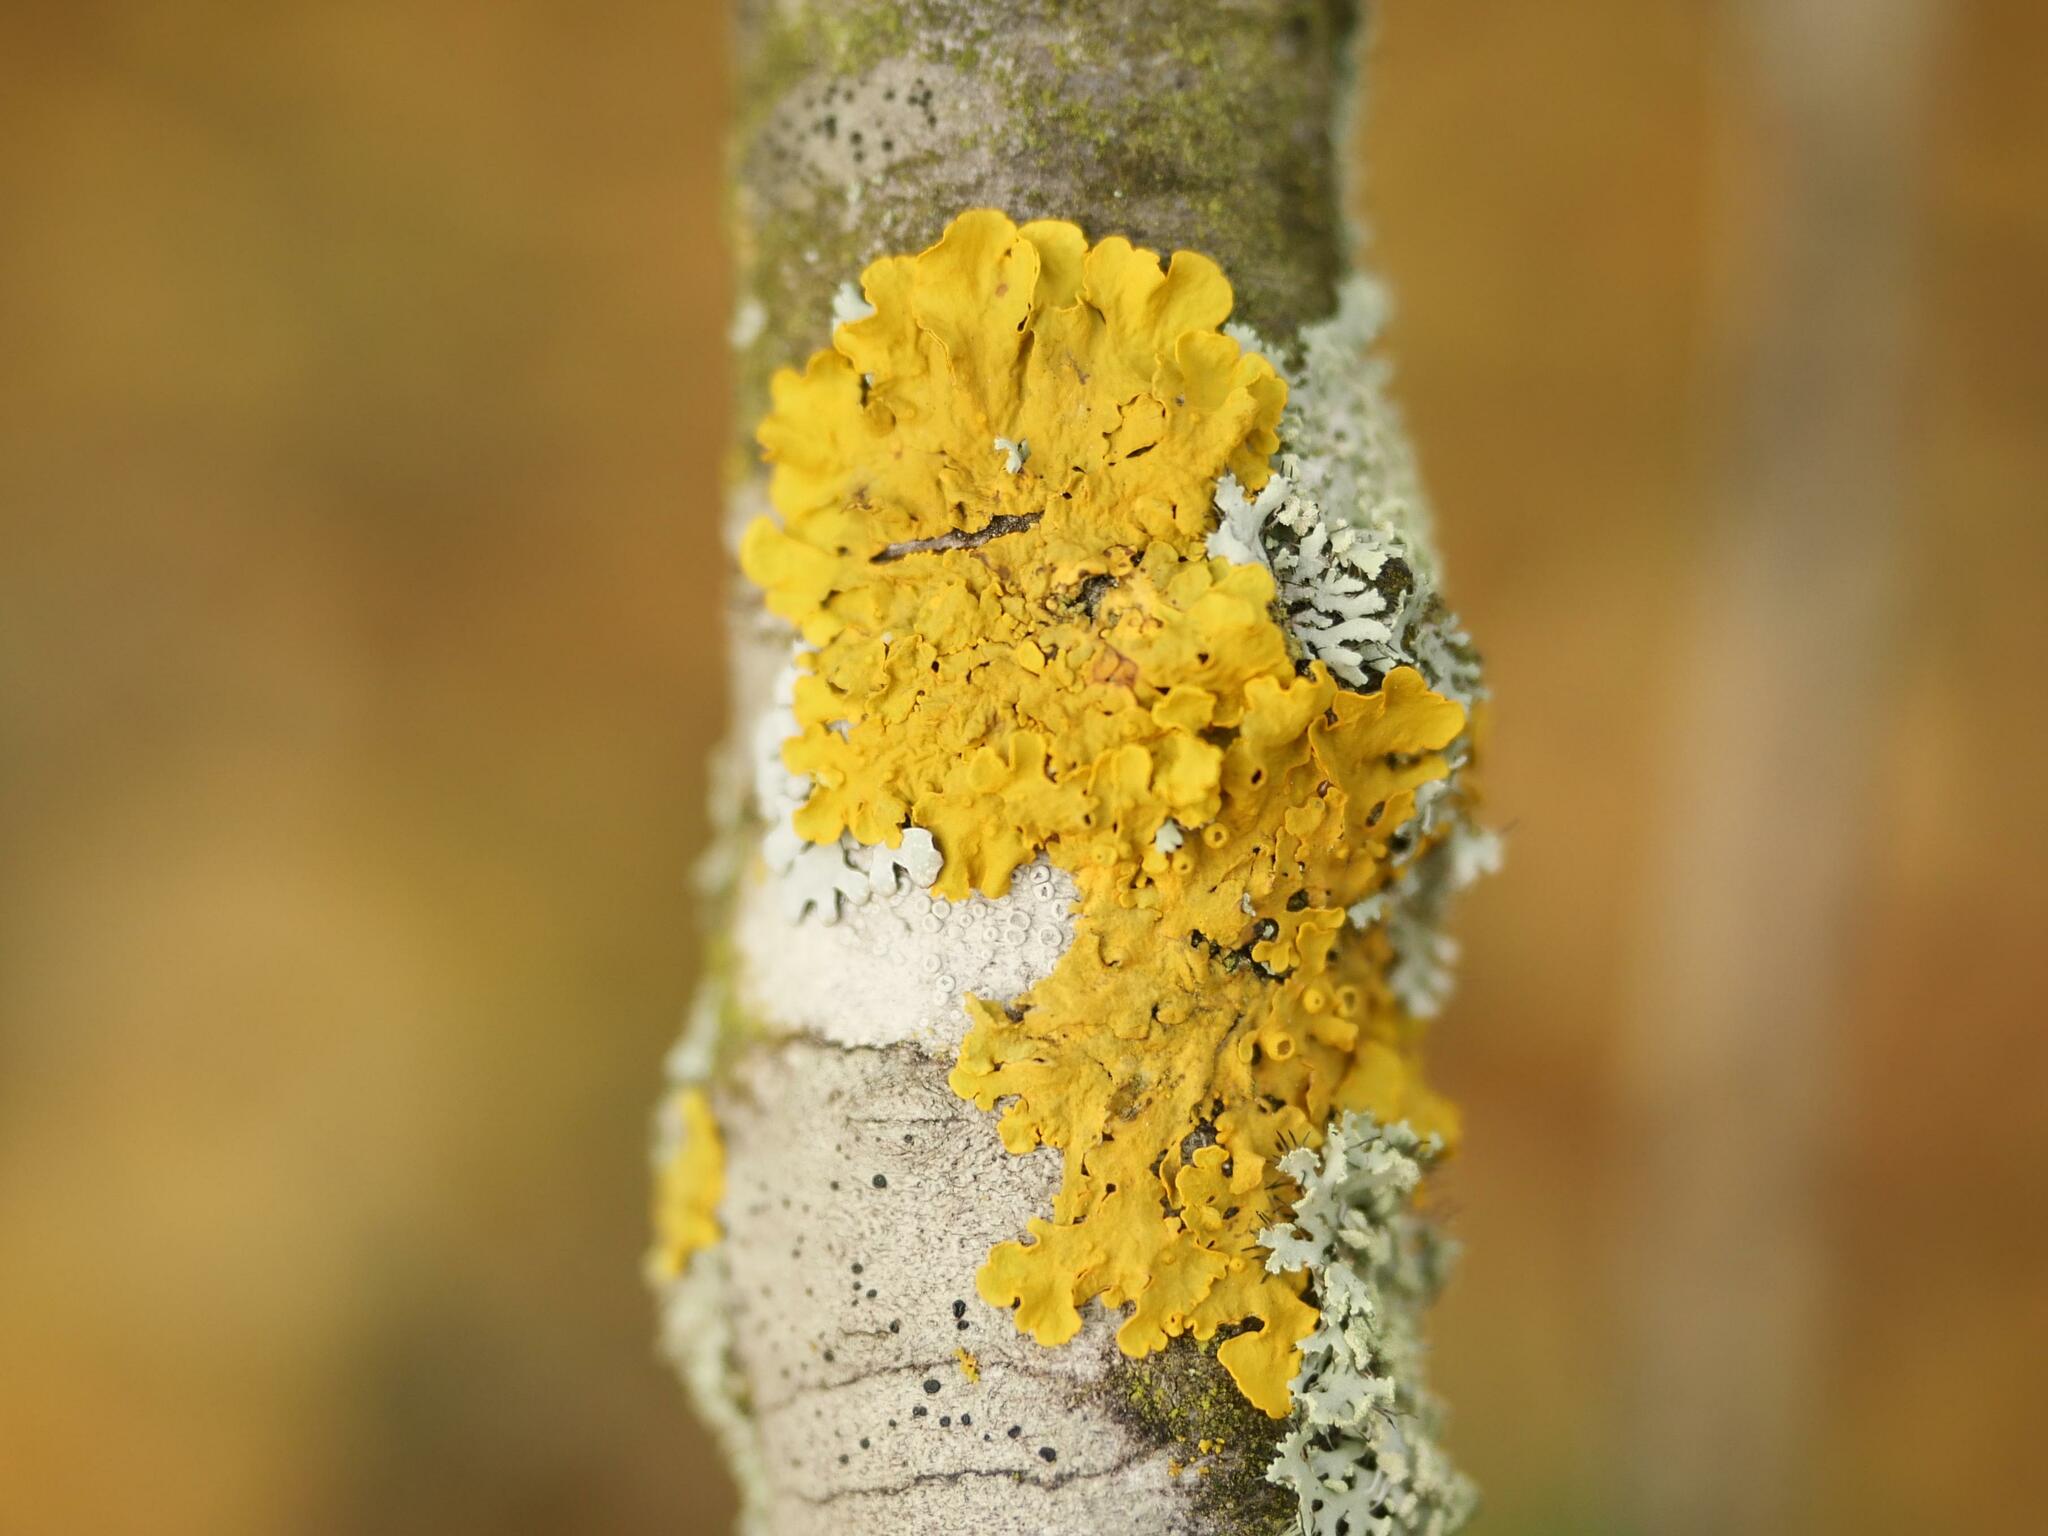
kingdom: Fungi
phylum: Ascomycota
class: Lecanoromycetes
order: Teloschistales
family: Teloschistaceae
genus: Xanthoria
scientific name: Xanthoria parietina
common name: Common orange lichen
